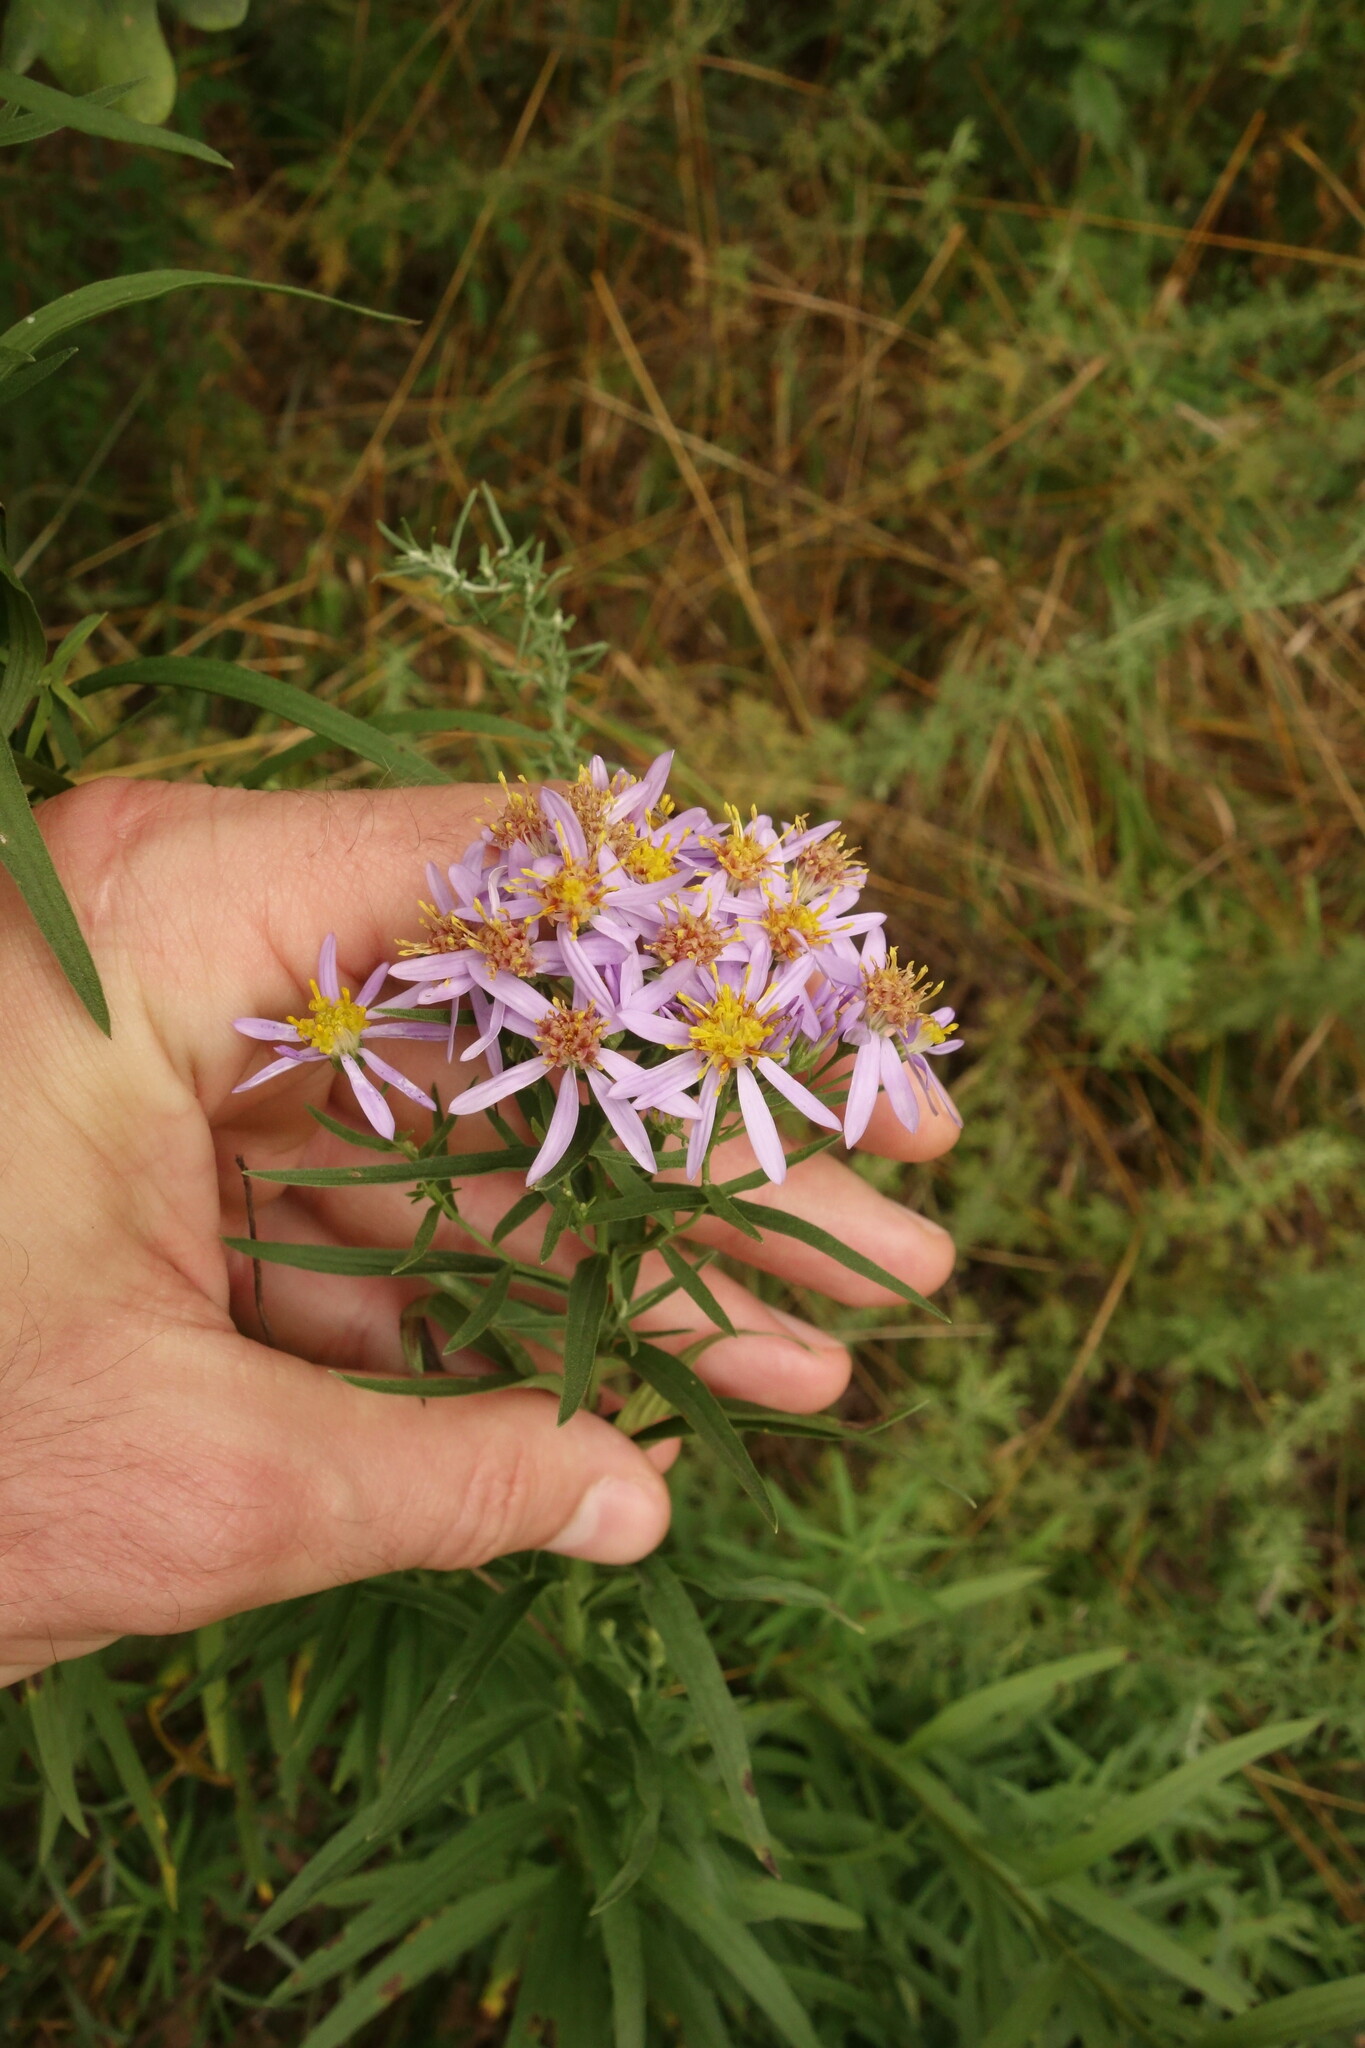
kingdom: Plantae
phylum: Tracheophyta
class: Magnoliopsida
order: Asterales
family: Asteraceae
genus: Galatella
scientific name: Galatella sedifolia
